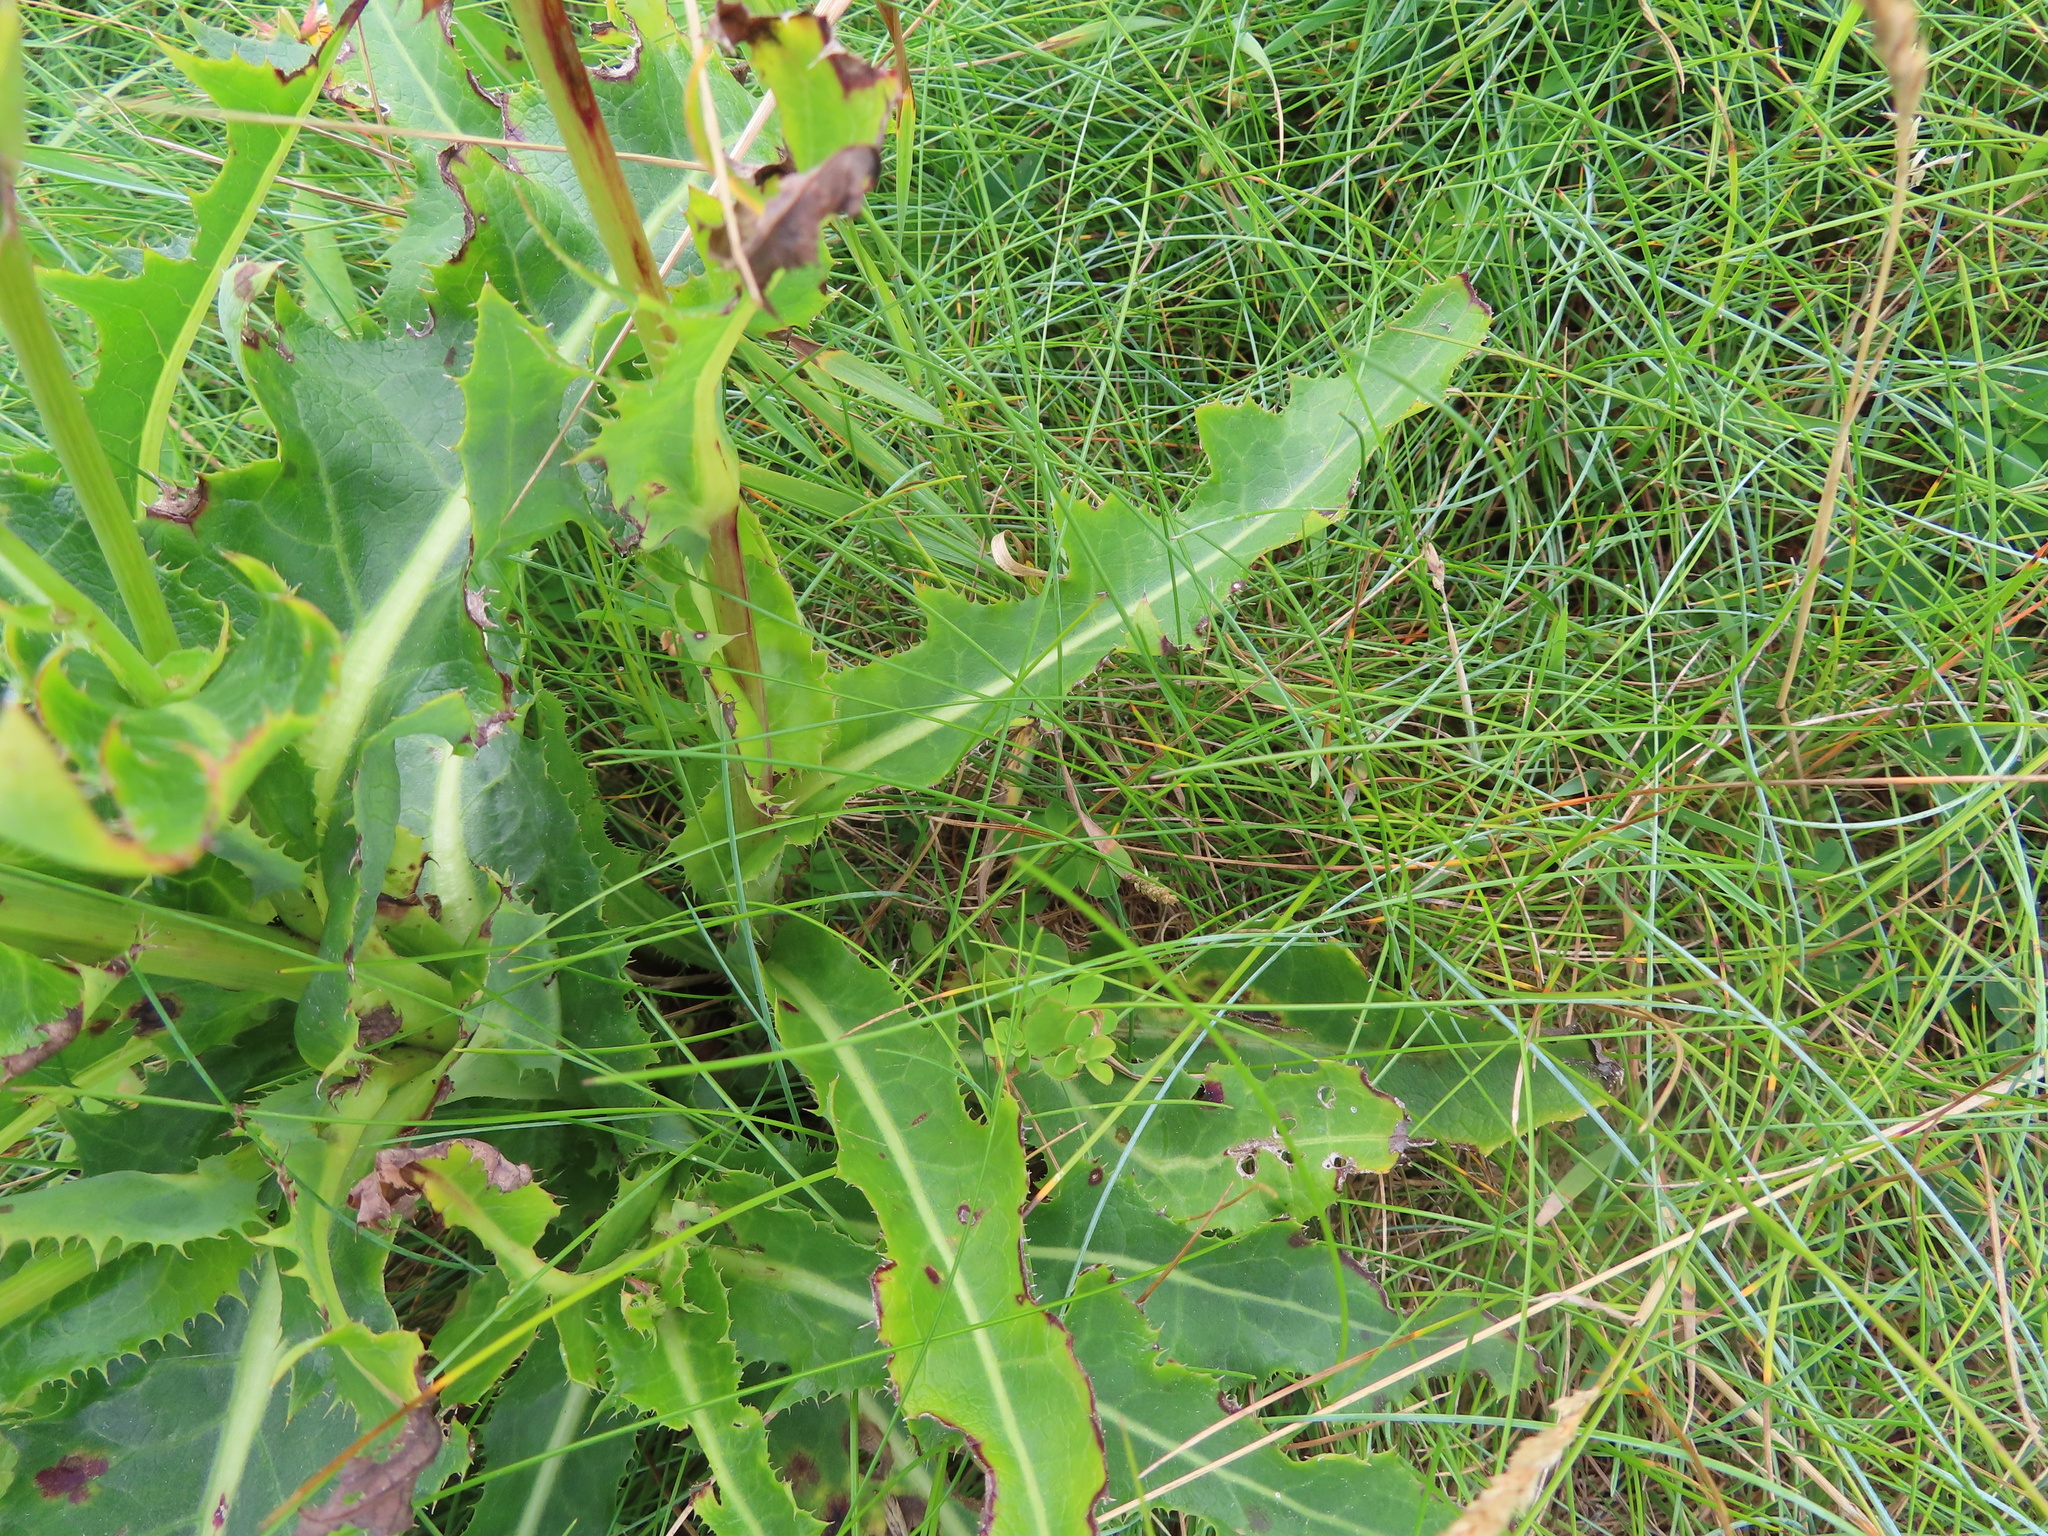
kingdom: Plantae
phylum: Tracheophyta
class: Magnoliopsida
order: Asterales
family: Asteraceae
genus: Sonchus
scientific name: Sonchus arvensis
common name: Perennial sow-thistle
